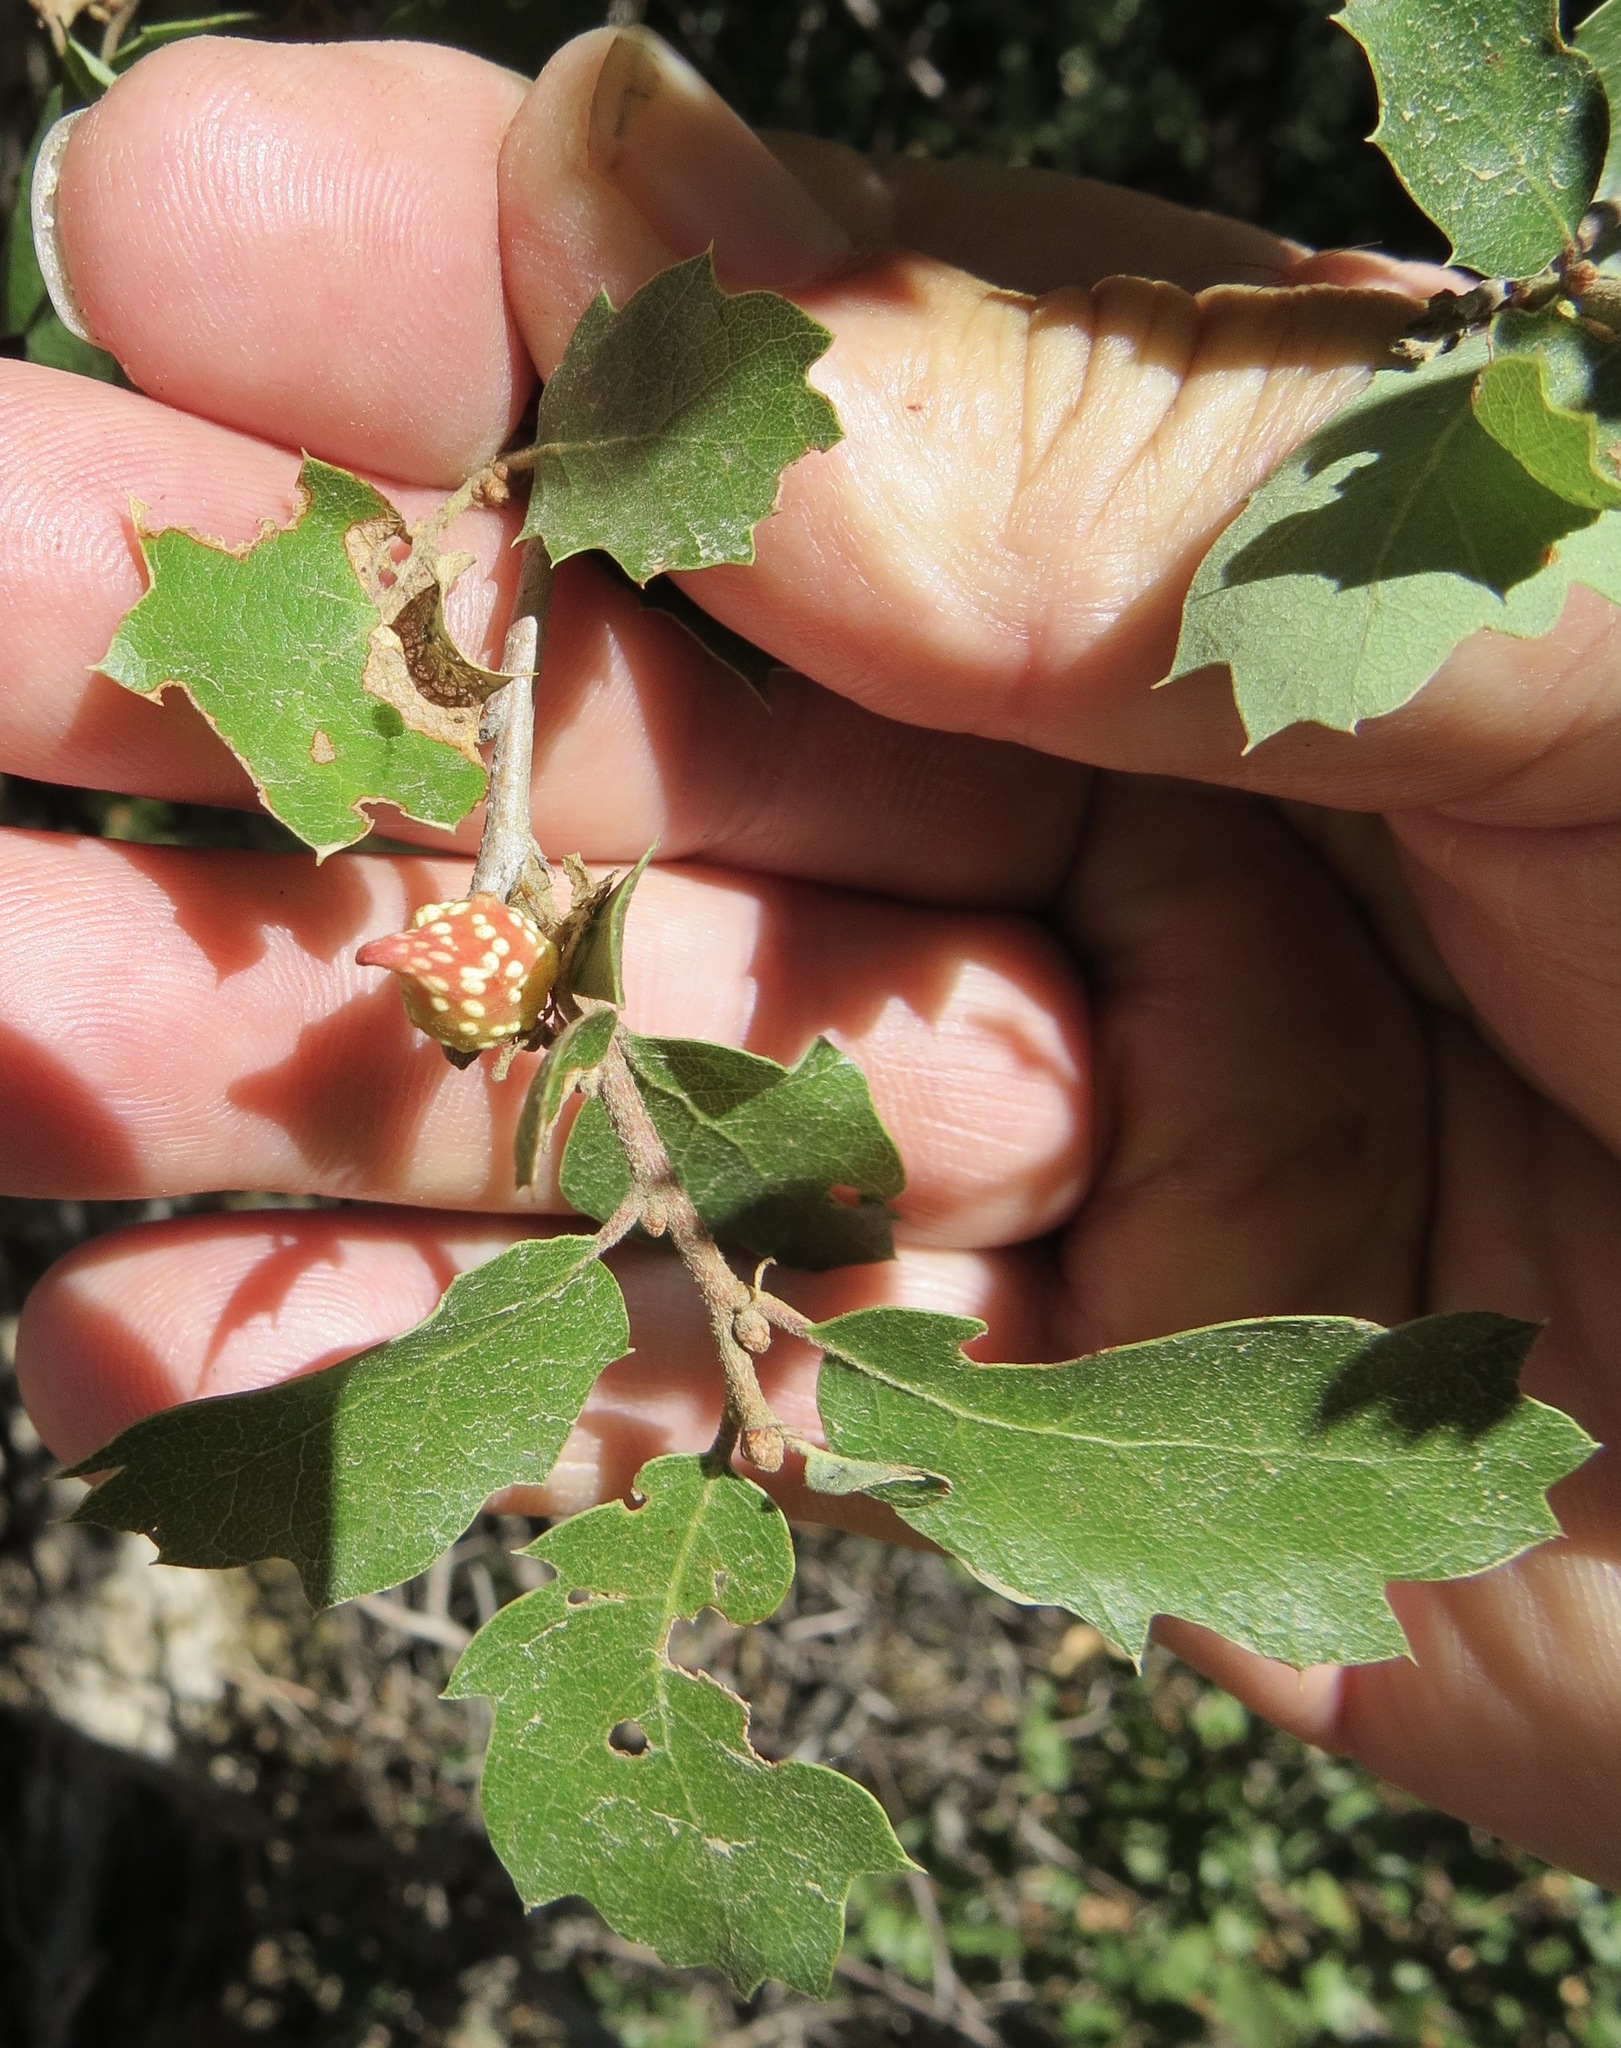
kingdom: Animalia
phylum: Arthropoda
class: Insecta
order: Hymenoptera
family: Cynipidae
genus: Burnettweldia
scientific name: Burnettweldia
